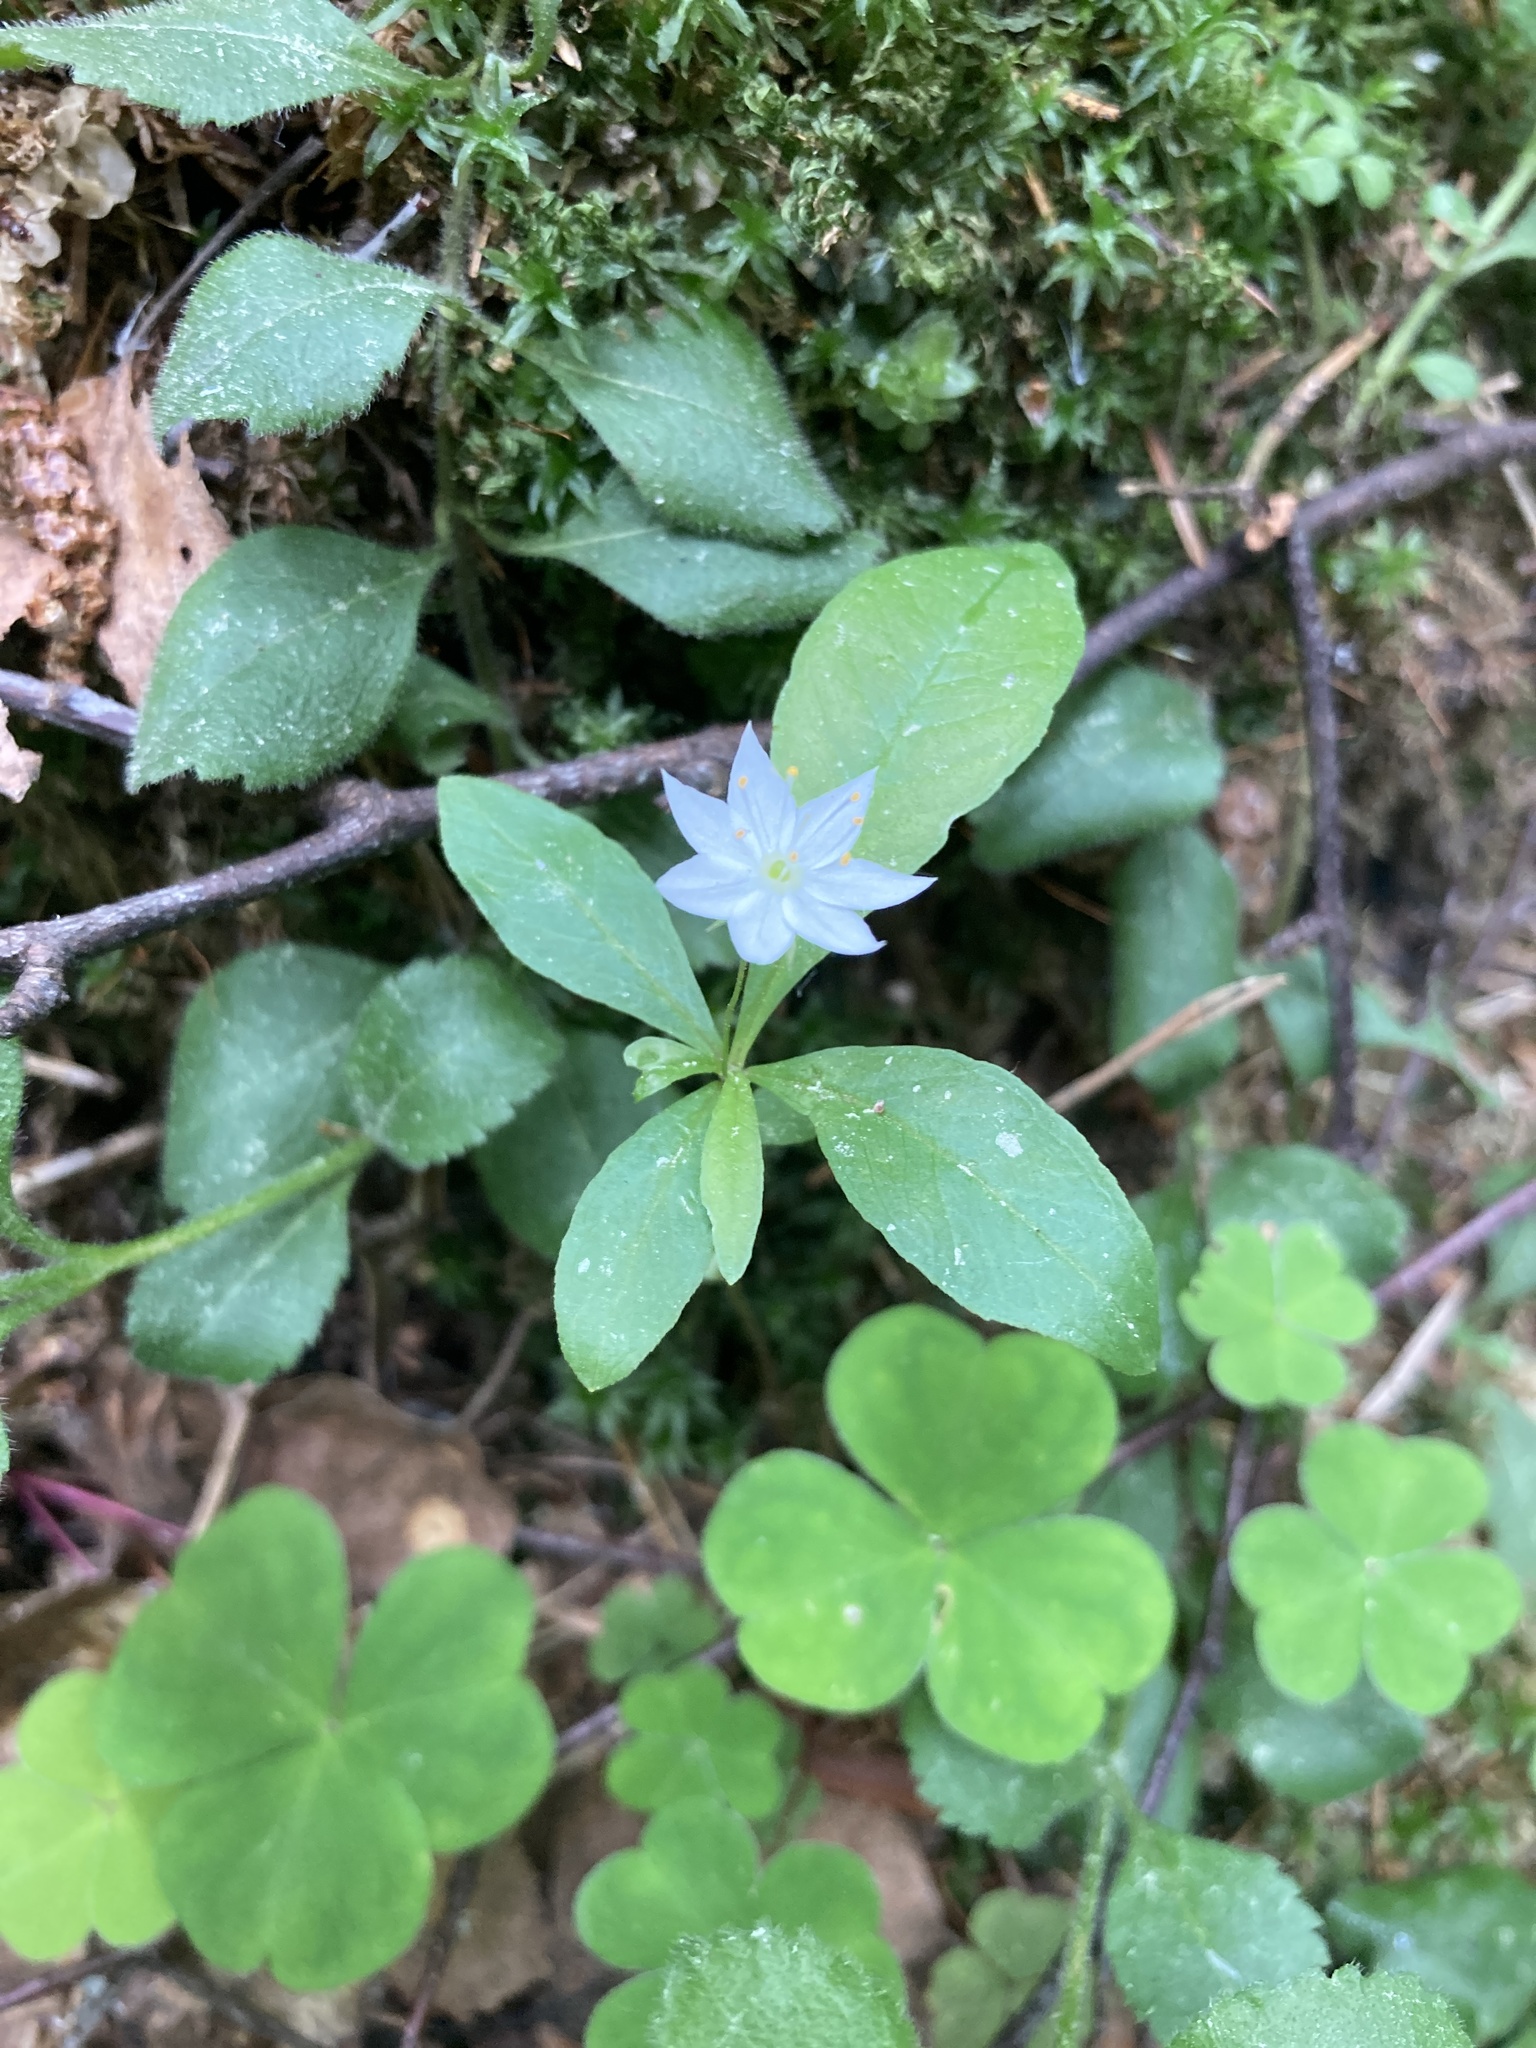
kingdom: Plantae
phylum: Tracheophyta
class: Magnoliopsida
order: Ericales
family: Primulaceae
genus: Lysimachia
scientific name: Lysimachia europaea
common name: Arctic starflower
